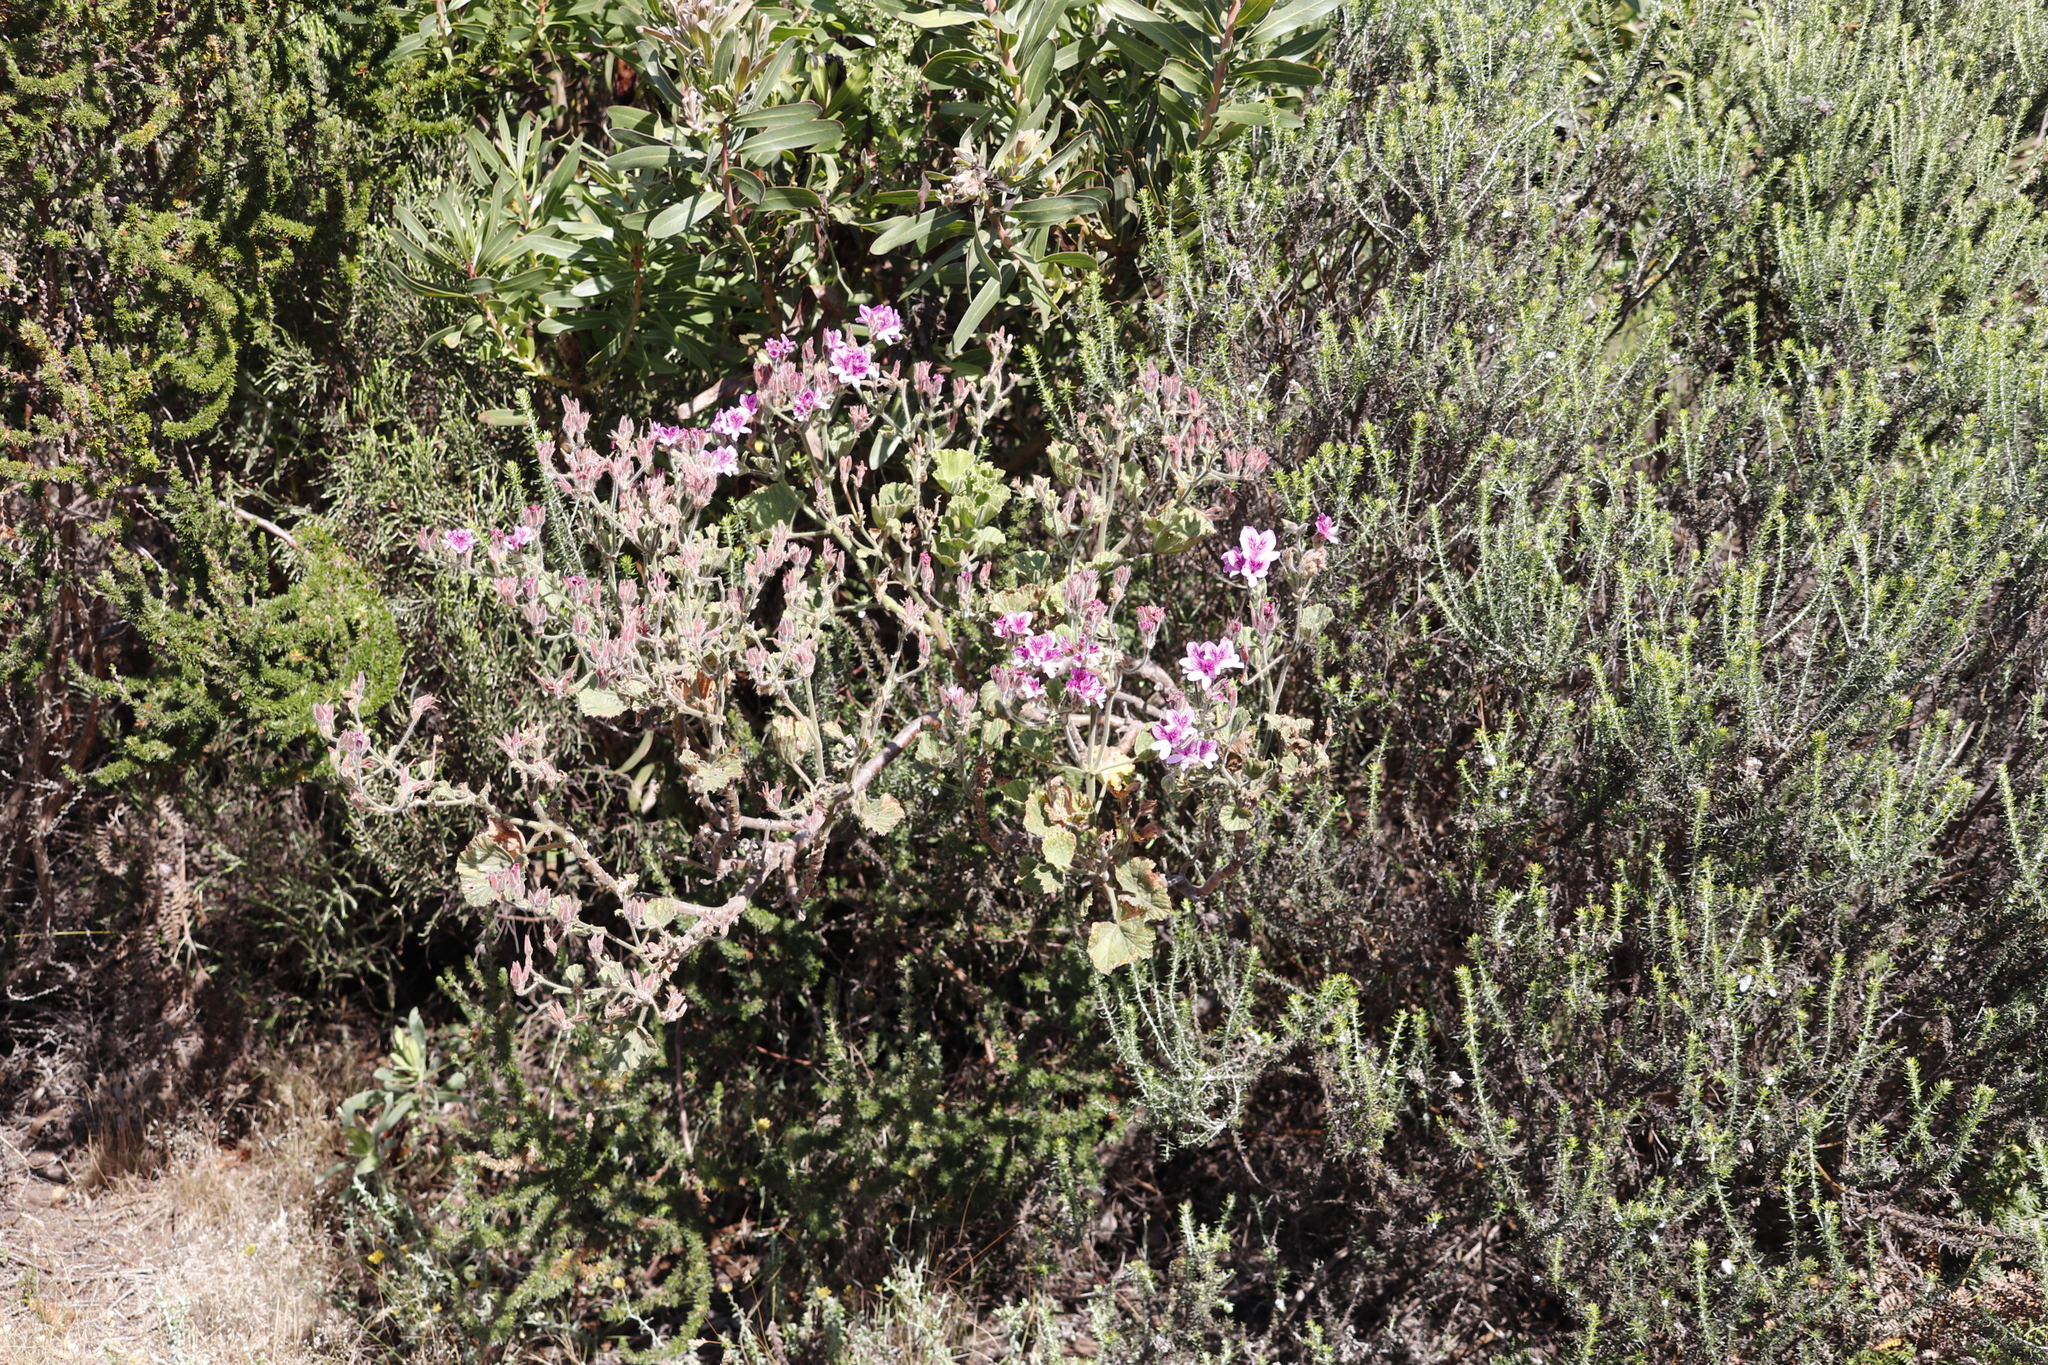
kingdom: Plantae
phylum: Tracheophyta
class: Magnoliopsida
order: Geraniales
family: Geraniaceae
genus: Pelargonium
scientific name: Pelargonium cucullatum
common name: Tree pelargonium
